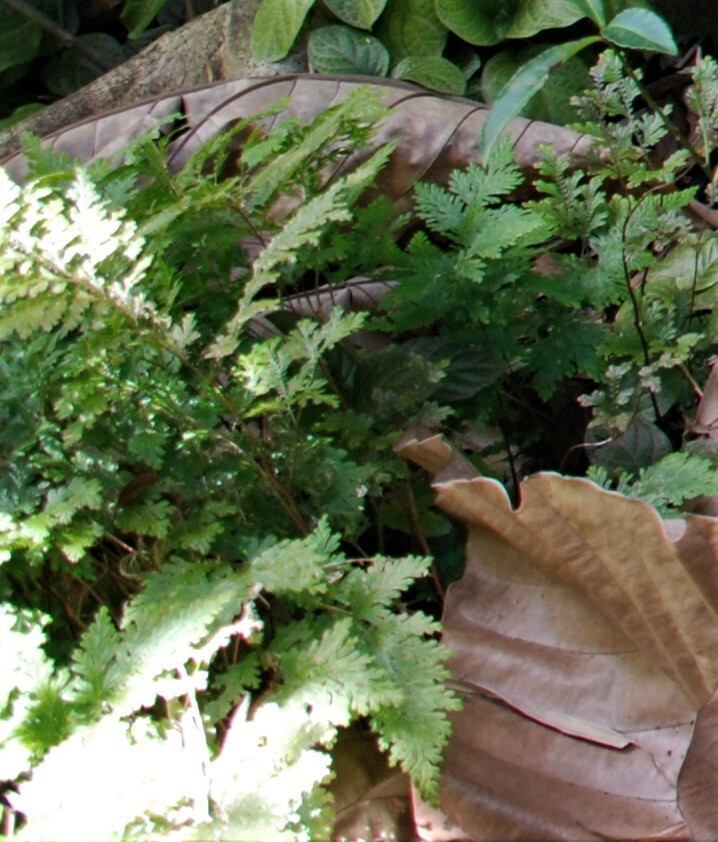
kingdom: Plantae
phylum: Tracheophyta
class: Lycopodiopsida
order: Selaginellales
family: Selaginellaceae
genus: Selaginella
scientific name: Selaginella willdenowii
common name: Willdenow's spikemoss
